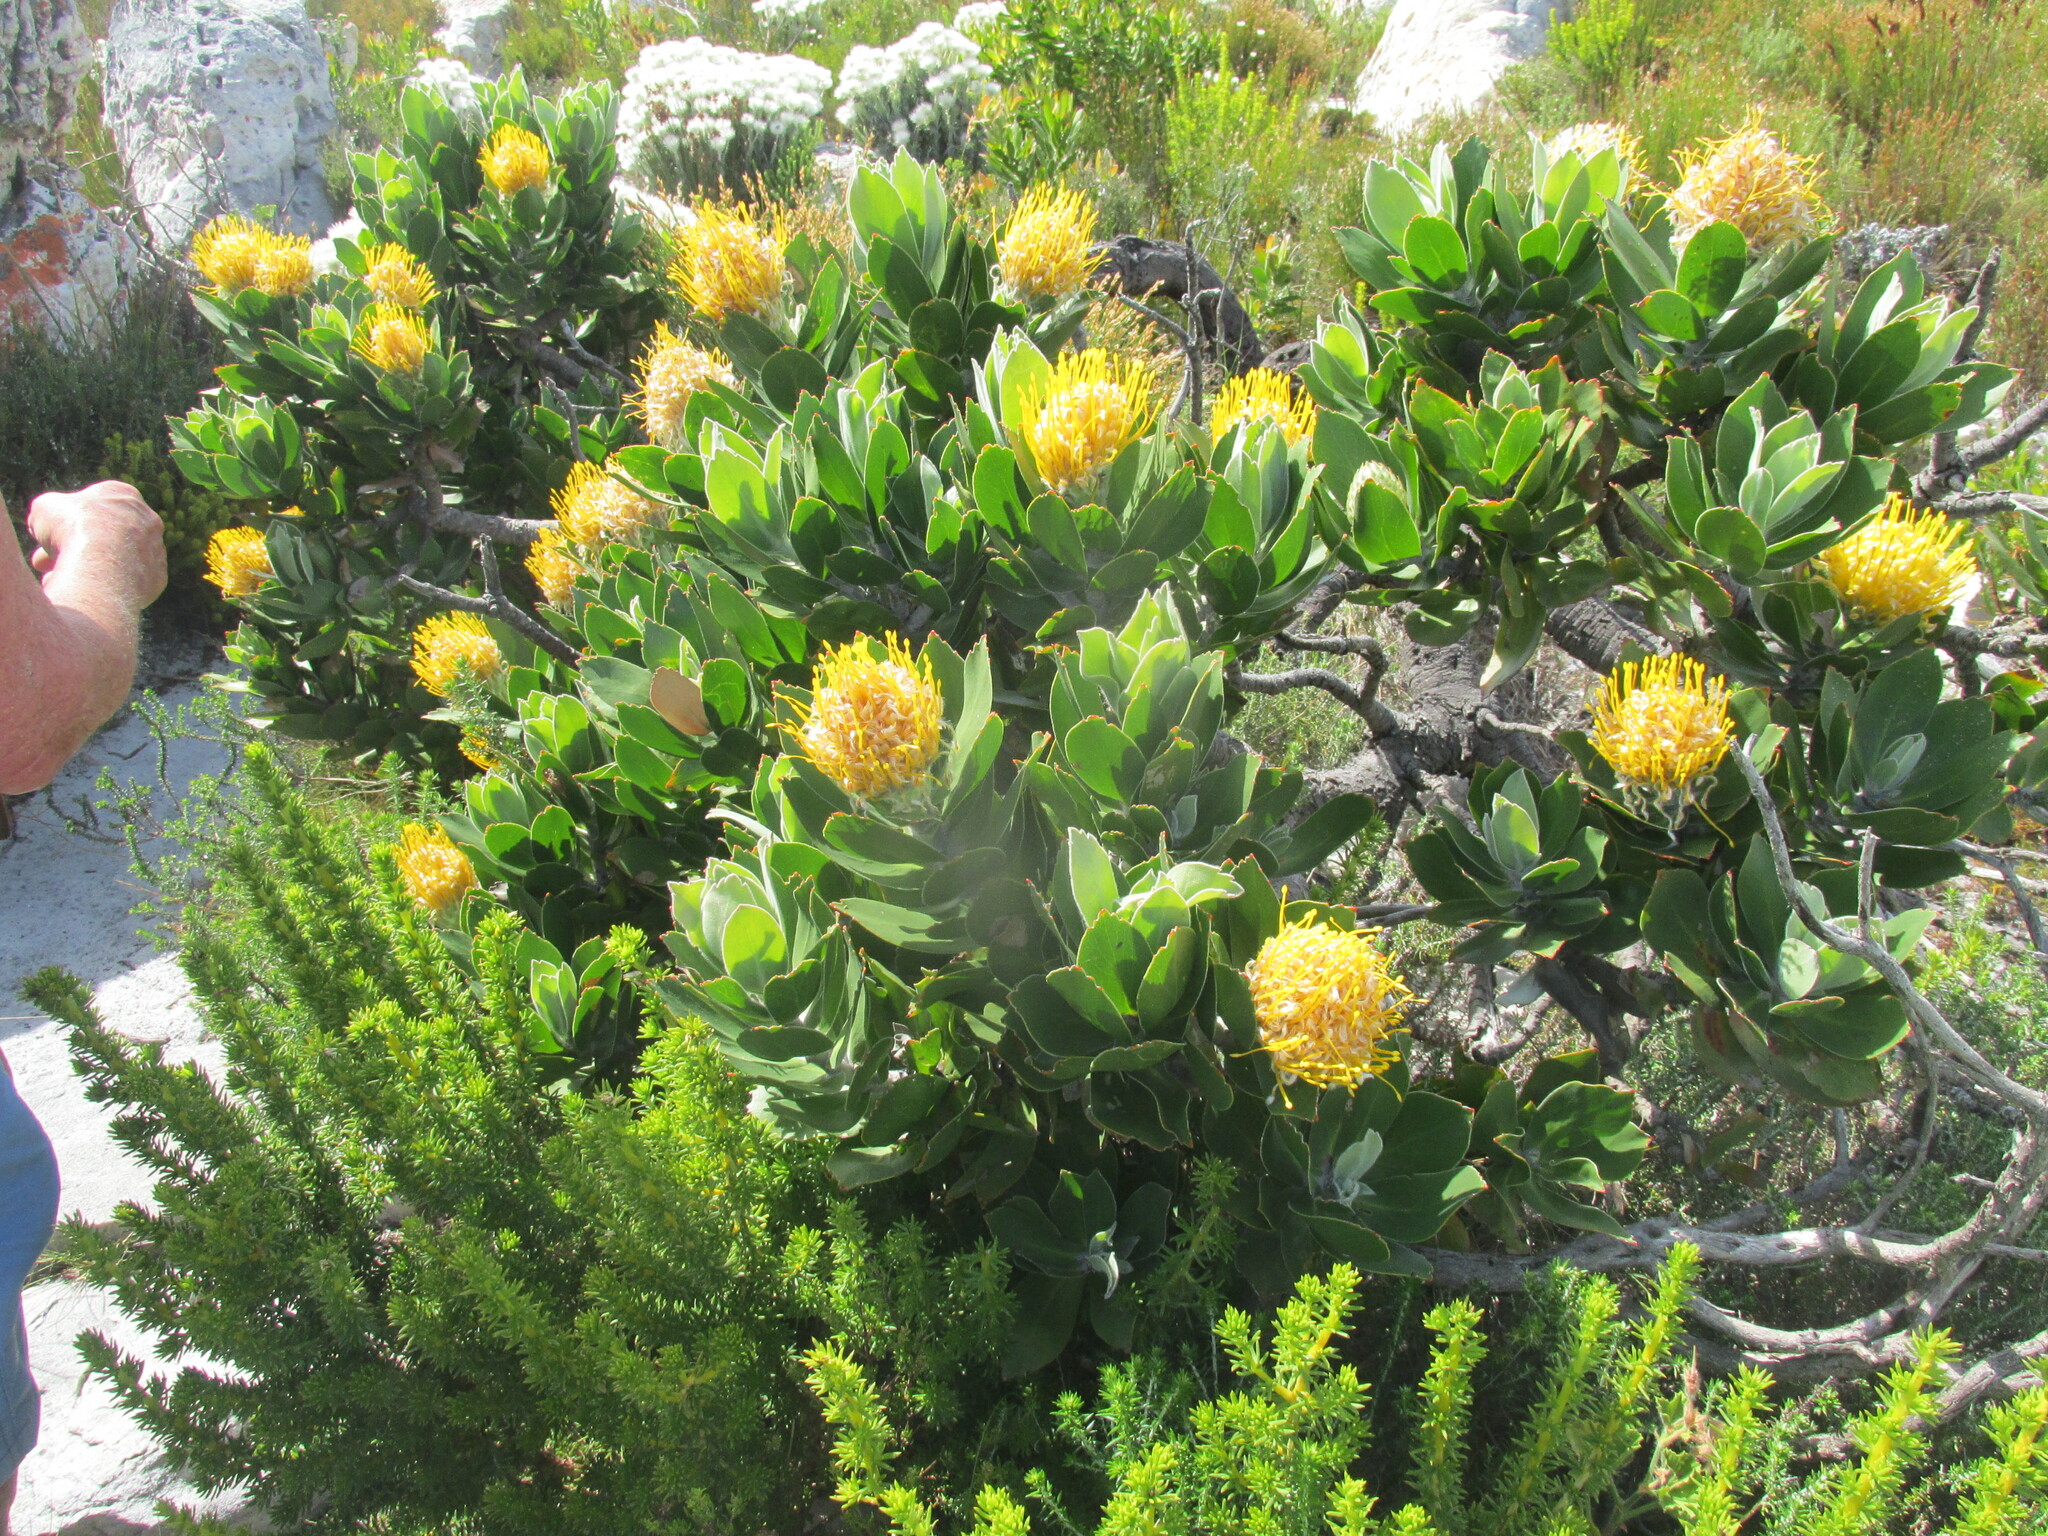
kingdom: Plantae
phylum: Tracheophyta
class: Magnoliopsida
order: Proteales
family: Proteaceae
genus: Leucospermum
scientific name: Leucospermum conocarpodendron
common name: Tree pincushion
